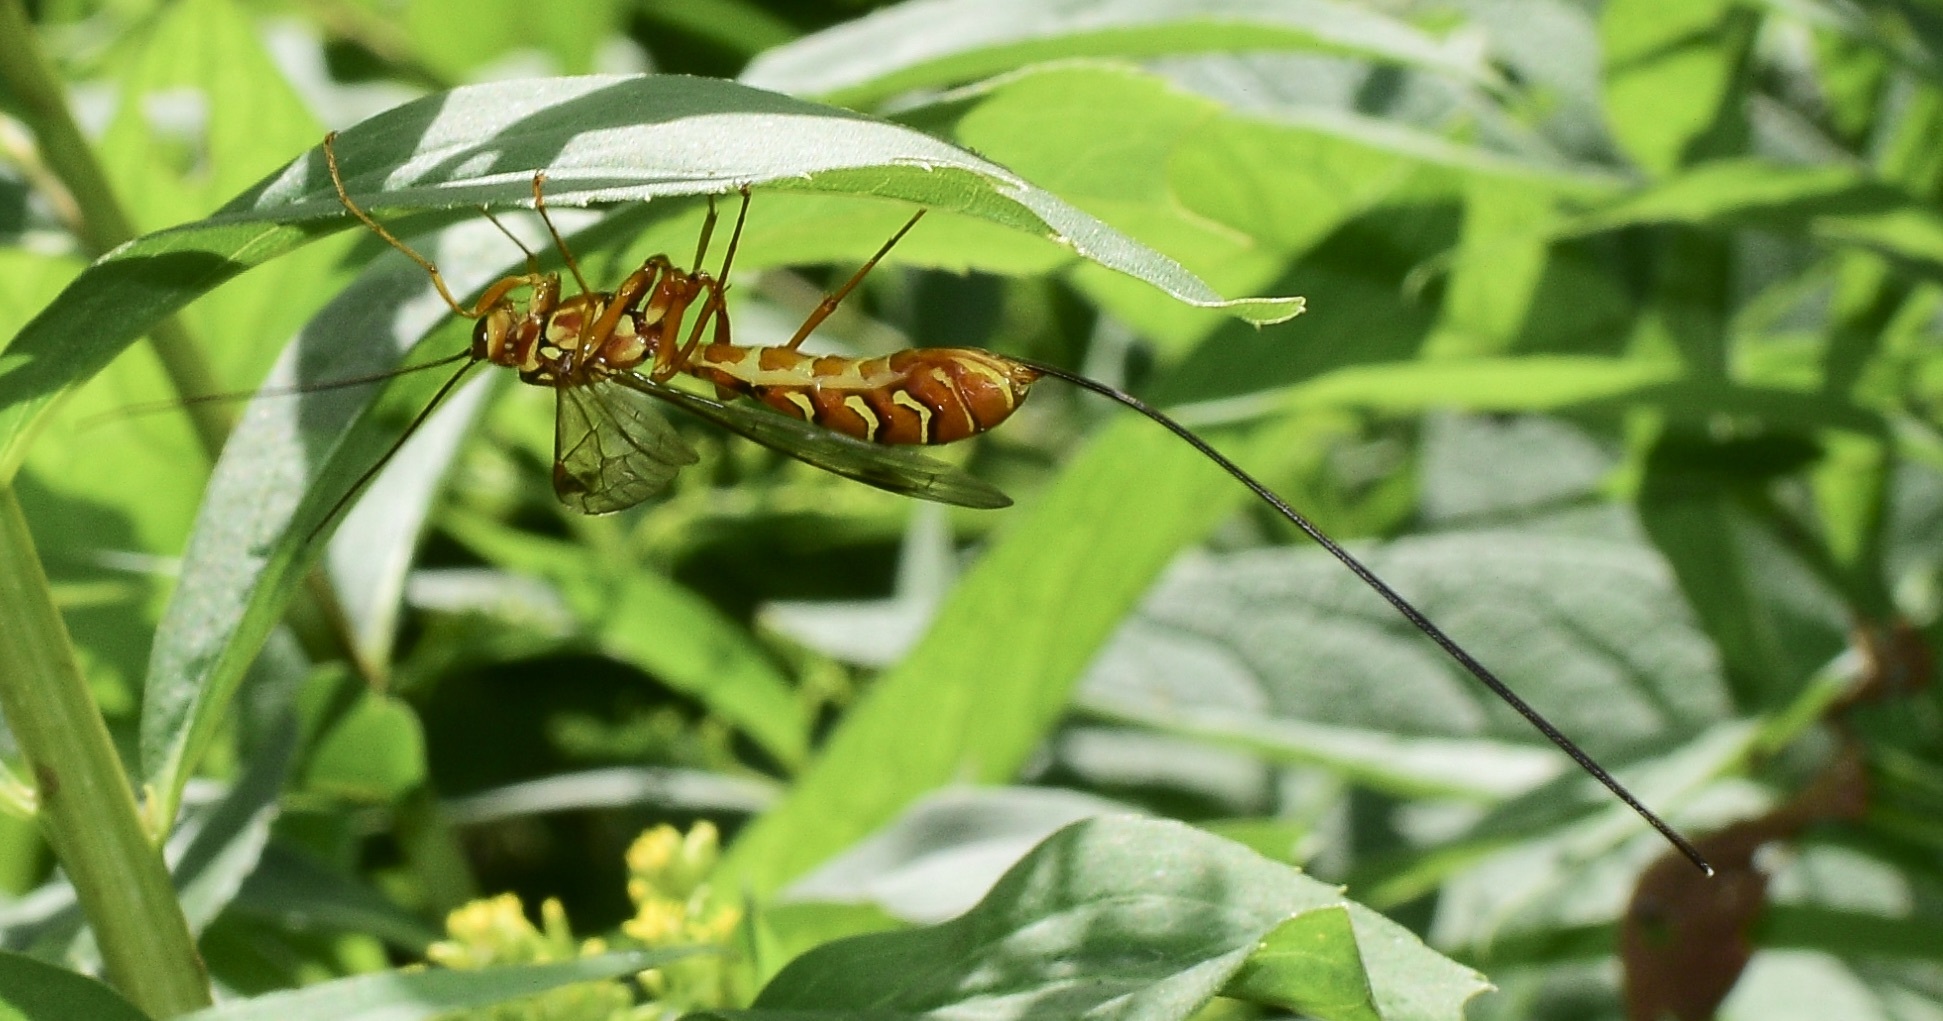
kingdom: Animalia
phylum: Arthropoda
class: Insecta
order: Hymenoptera
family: Ichneumonidae
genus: Megarhyssa
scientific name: Megarhyssa greenei
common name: Greene's giant ichneumonid wasp
